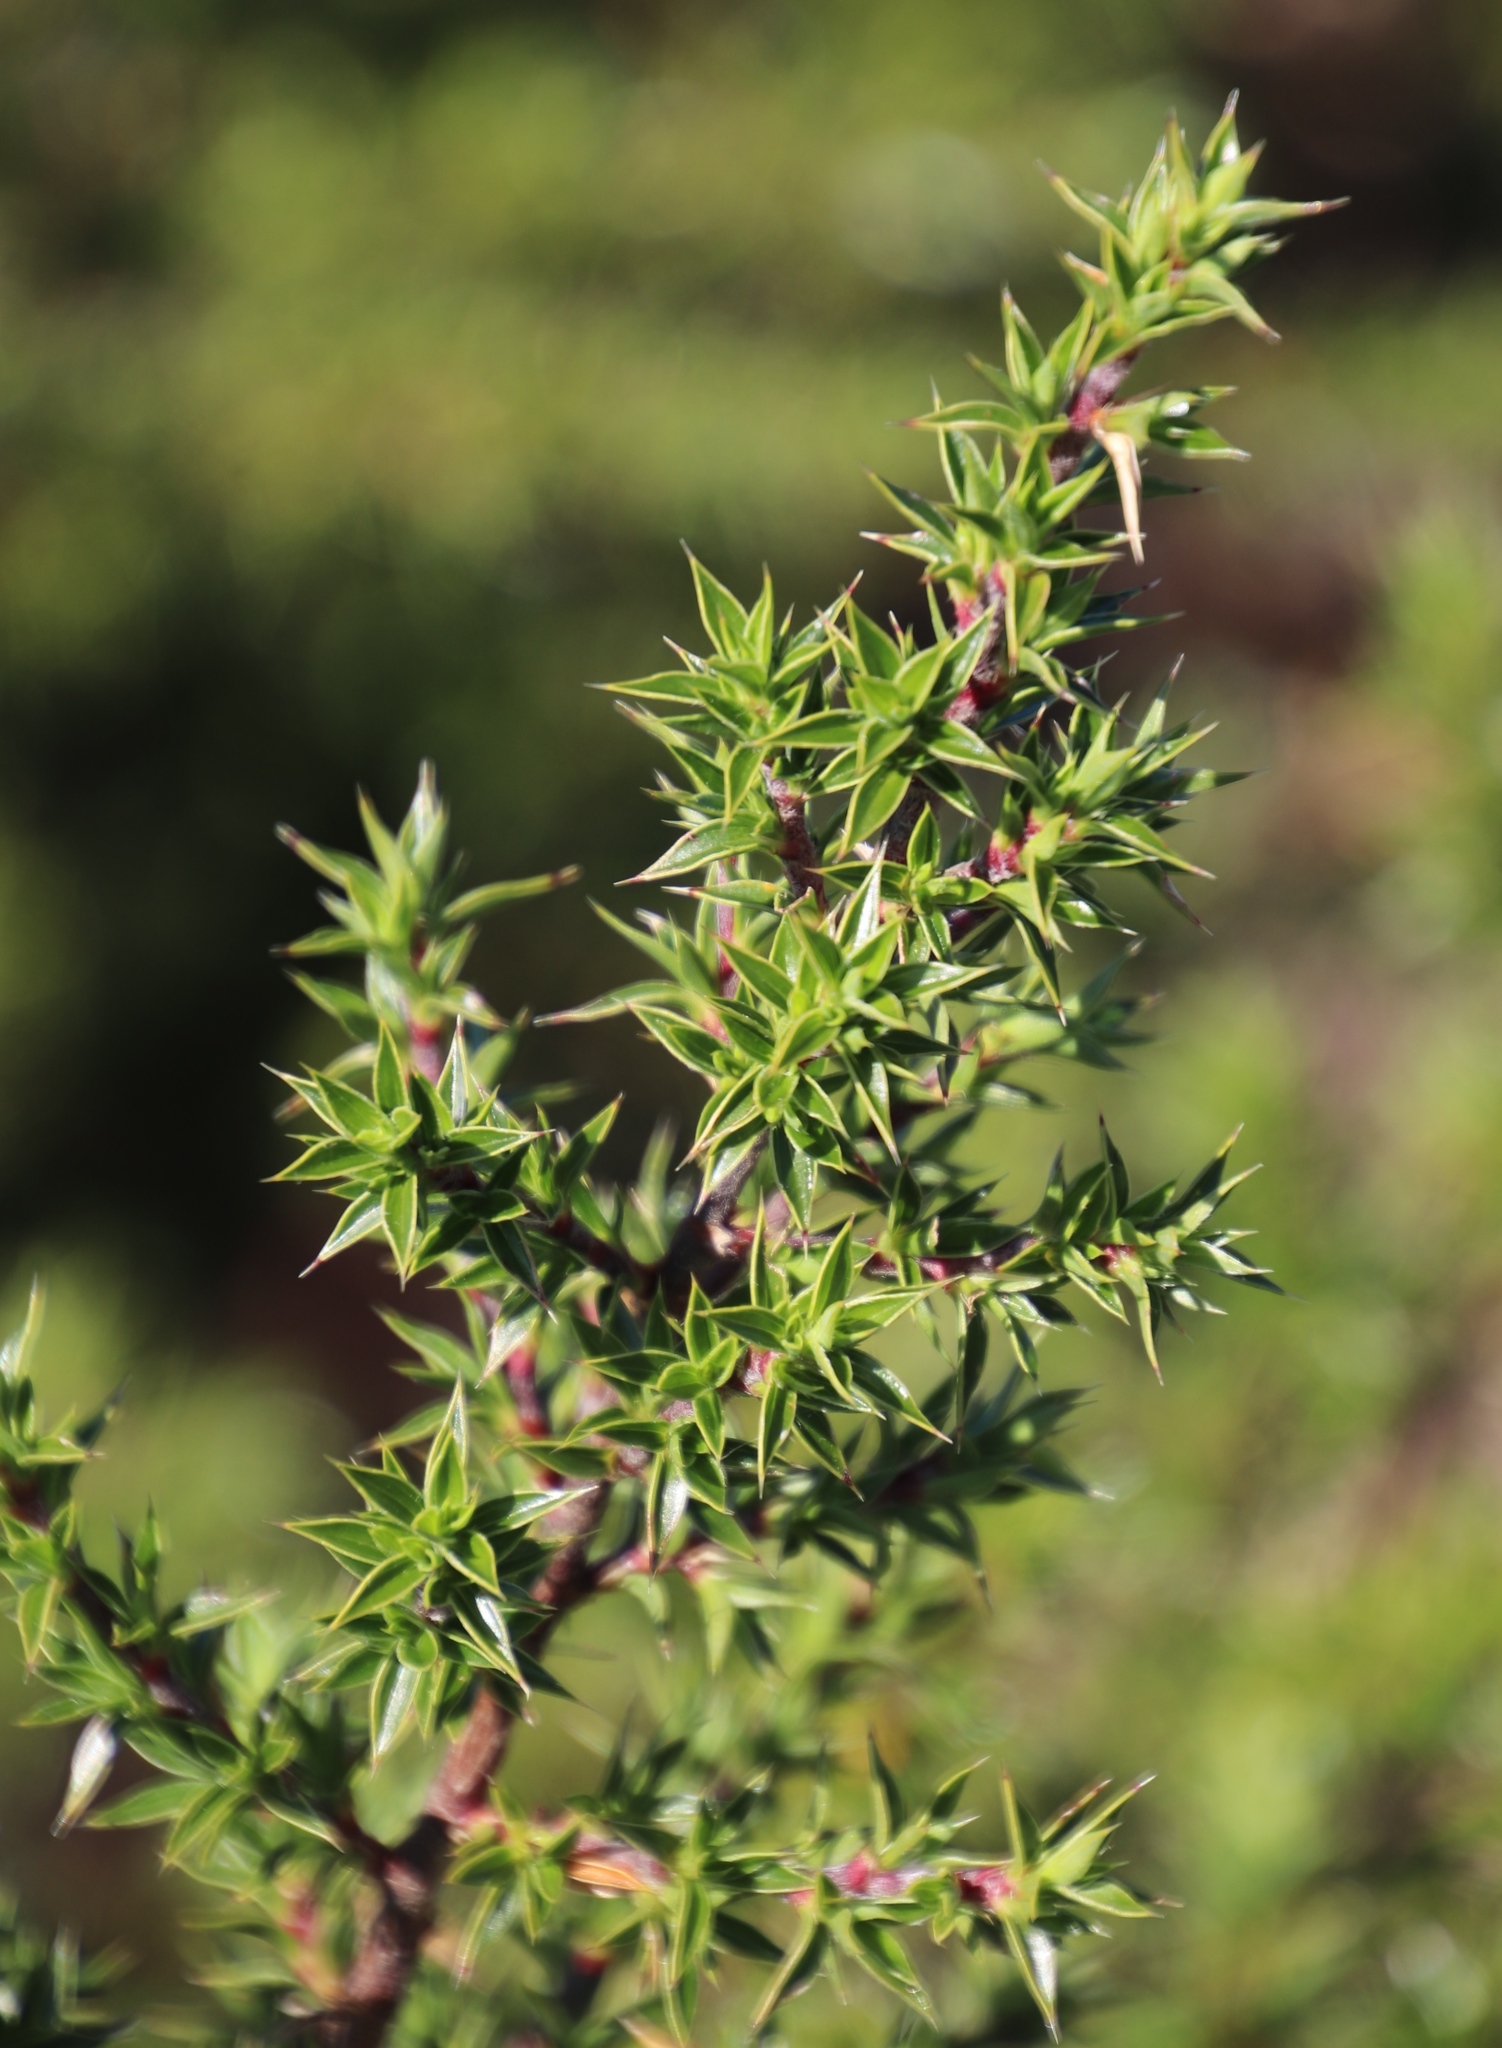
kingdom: Plantae
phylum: Tracheophyta
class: Magnoliopsida
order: Rosales
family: Rosaceae
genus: Cliffortia
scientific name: Cliffortia ruscifolia
